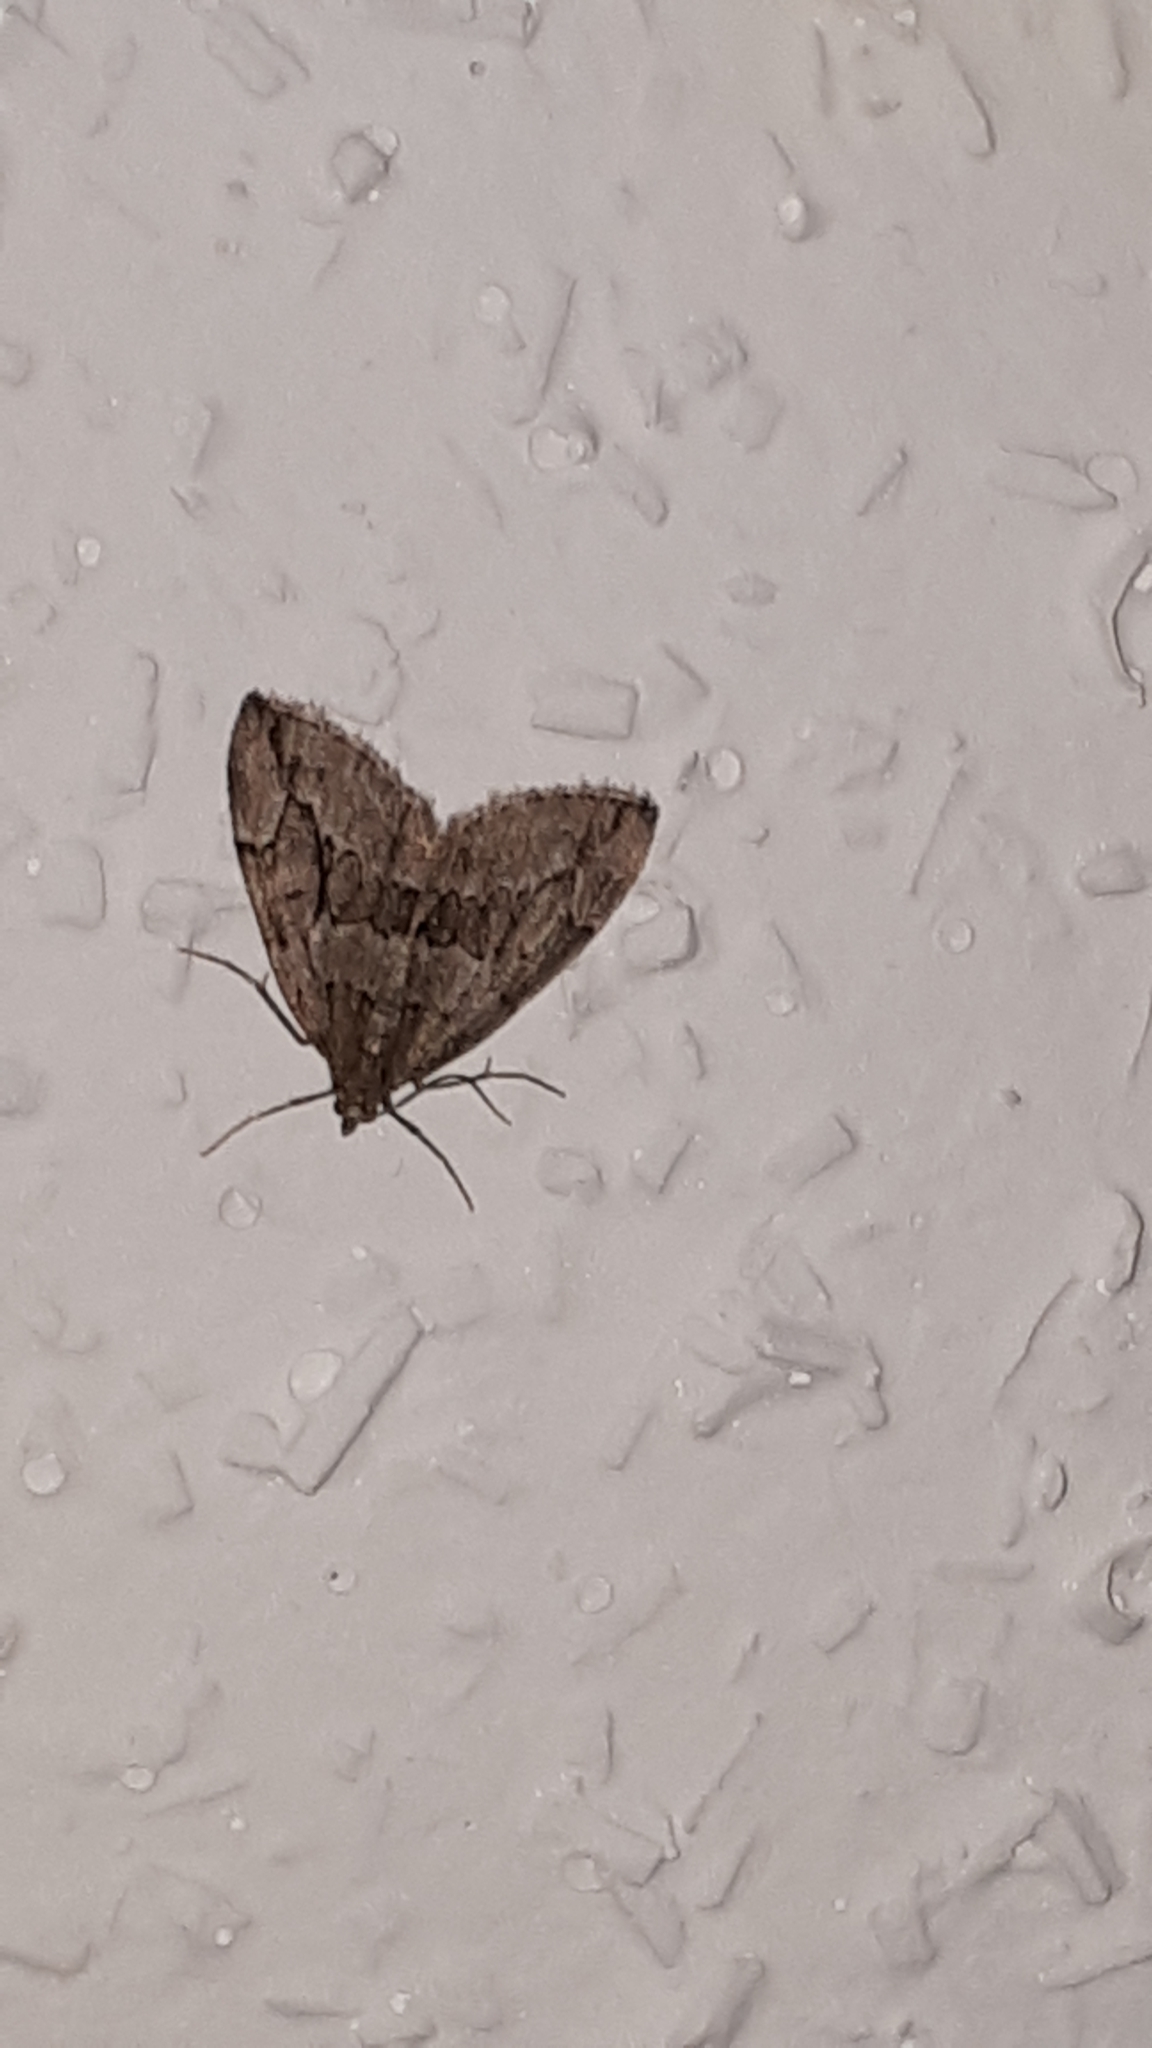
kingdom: Animalia
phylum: Arthropoda
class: Insecta
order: Lepidoptera
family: Geometridae
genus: Thera
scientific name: Thera juniperata
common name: Juniper carpet
